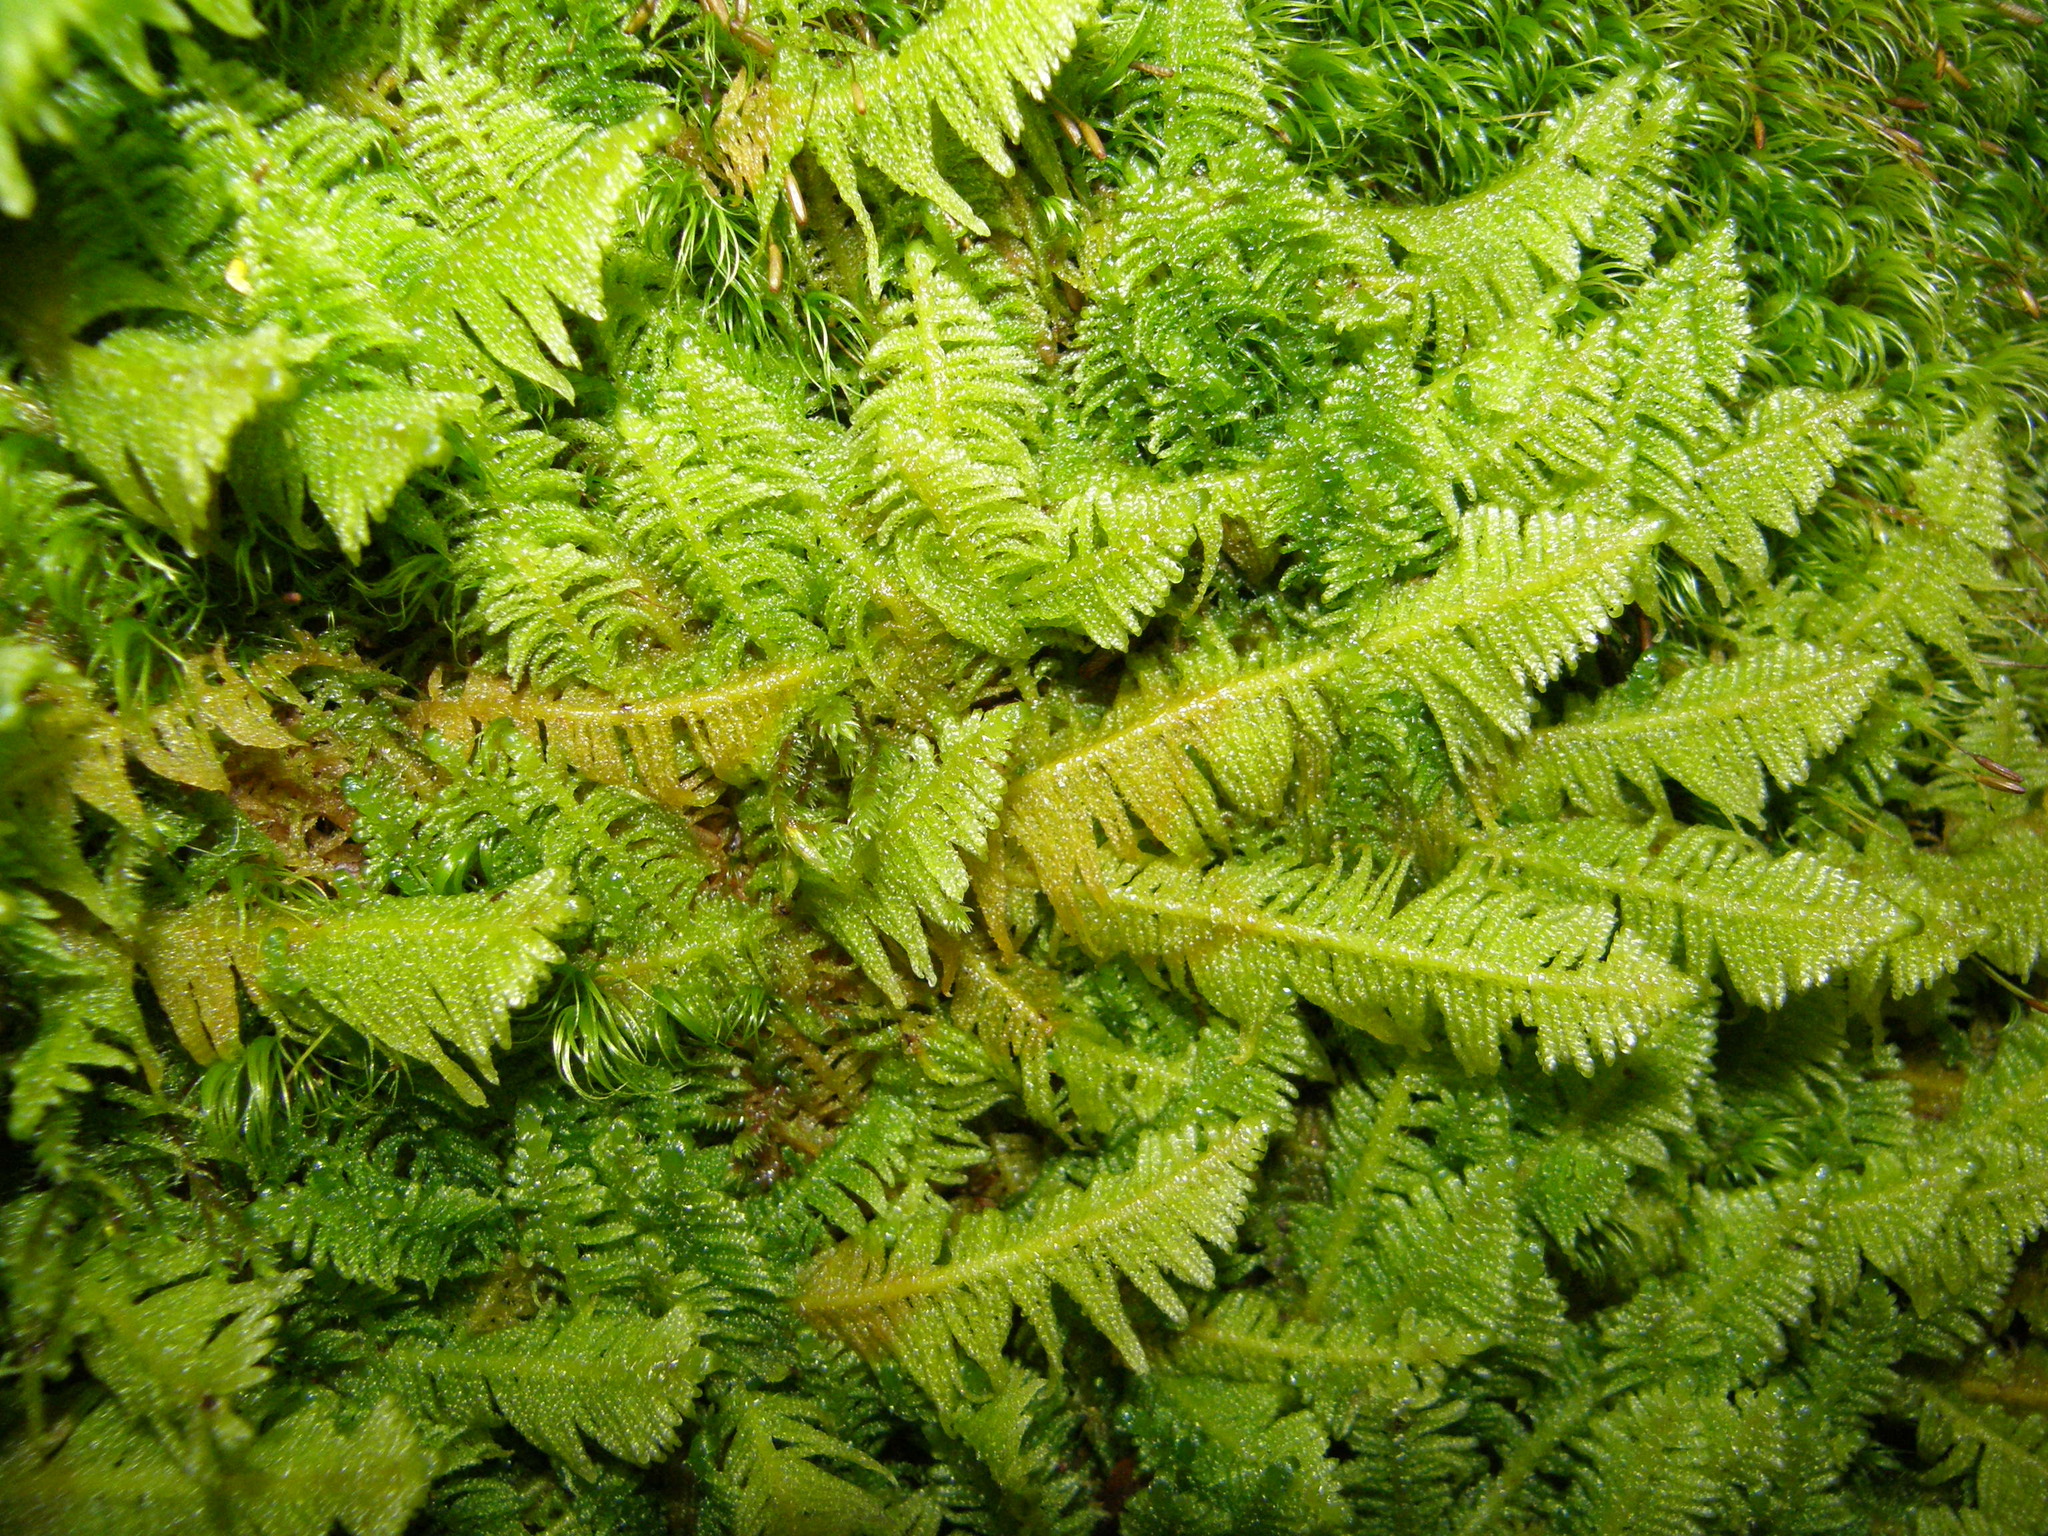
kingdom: Plantae
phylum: Bryophyta
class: Bryopsida
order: Hypnales
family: Pylaisiaceae
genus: Ptilium
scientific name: Ptilium crista-castrensis
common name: Knight's plume moss
